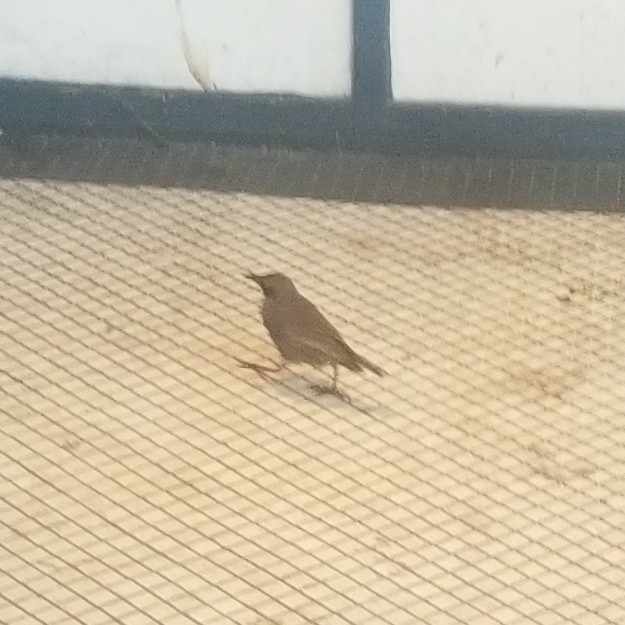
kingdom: Animalia
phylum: Chordata
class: Aves
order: Passeriformes
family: Sturnidae
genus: Sturnus
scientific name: Sturnus vulgaris
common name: Common starling
